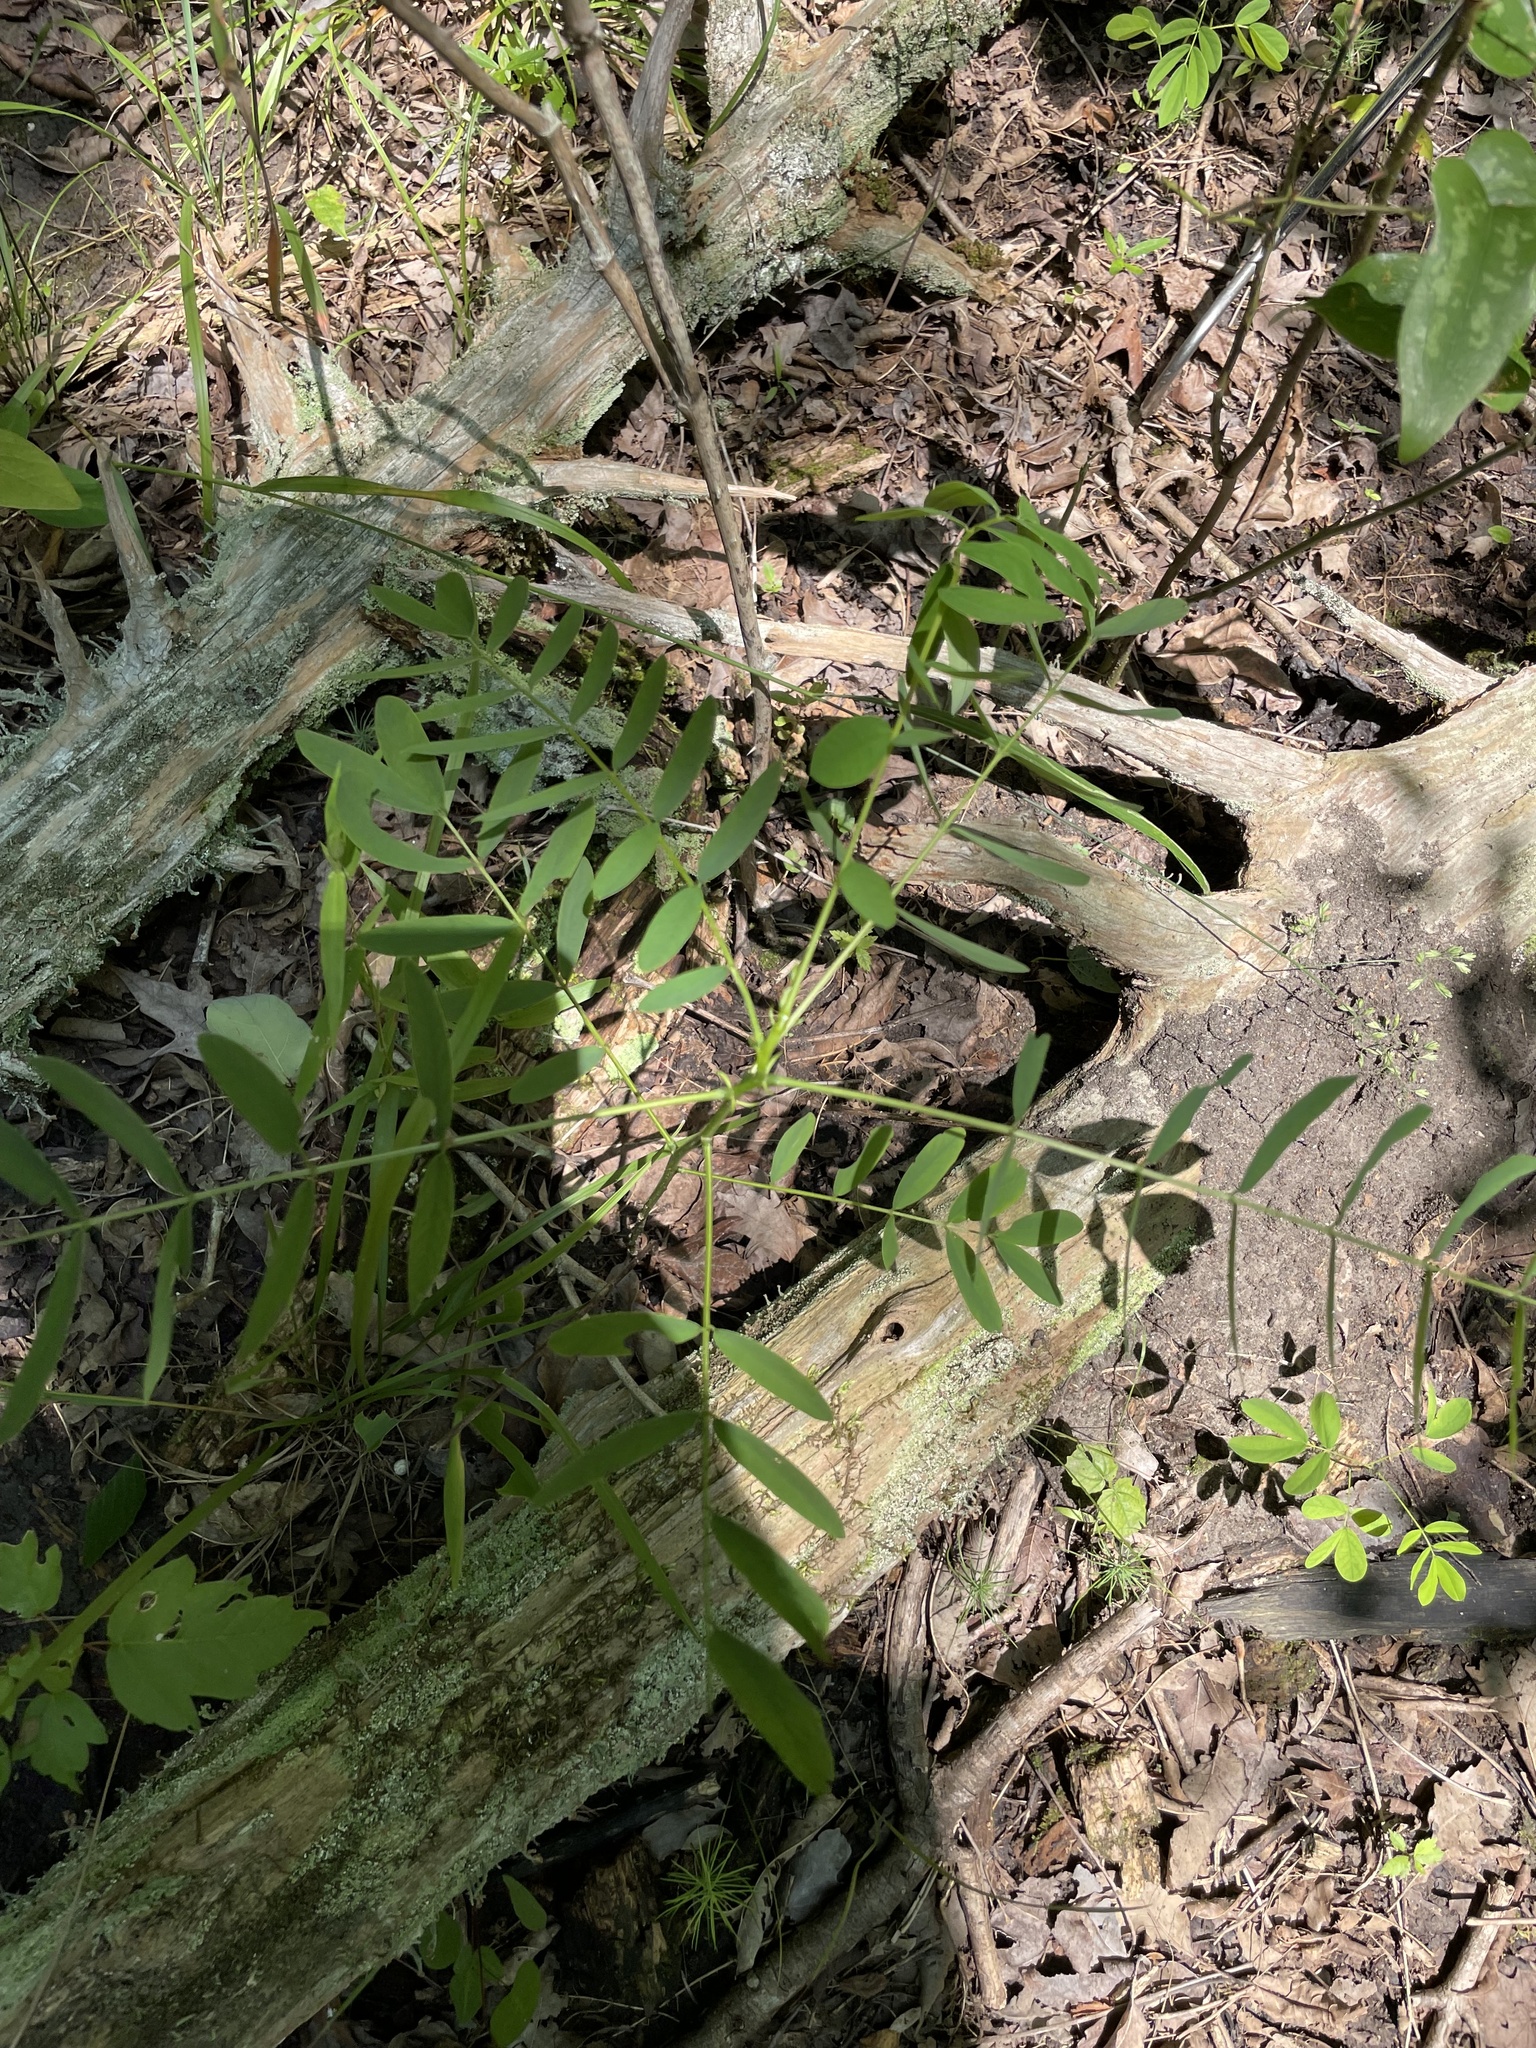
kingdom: Plantae
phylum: Tracheophyta
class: Magnoliopsida
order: Fabales
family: Fabaceae
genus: Senna
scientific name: Senna marilandica
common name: American senna
